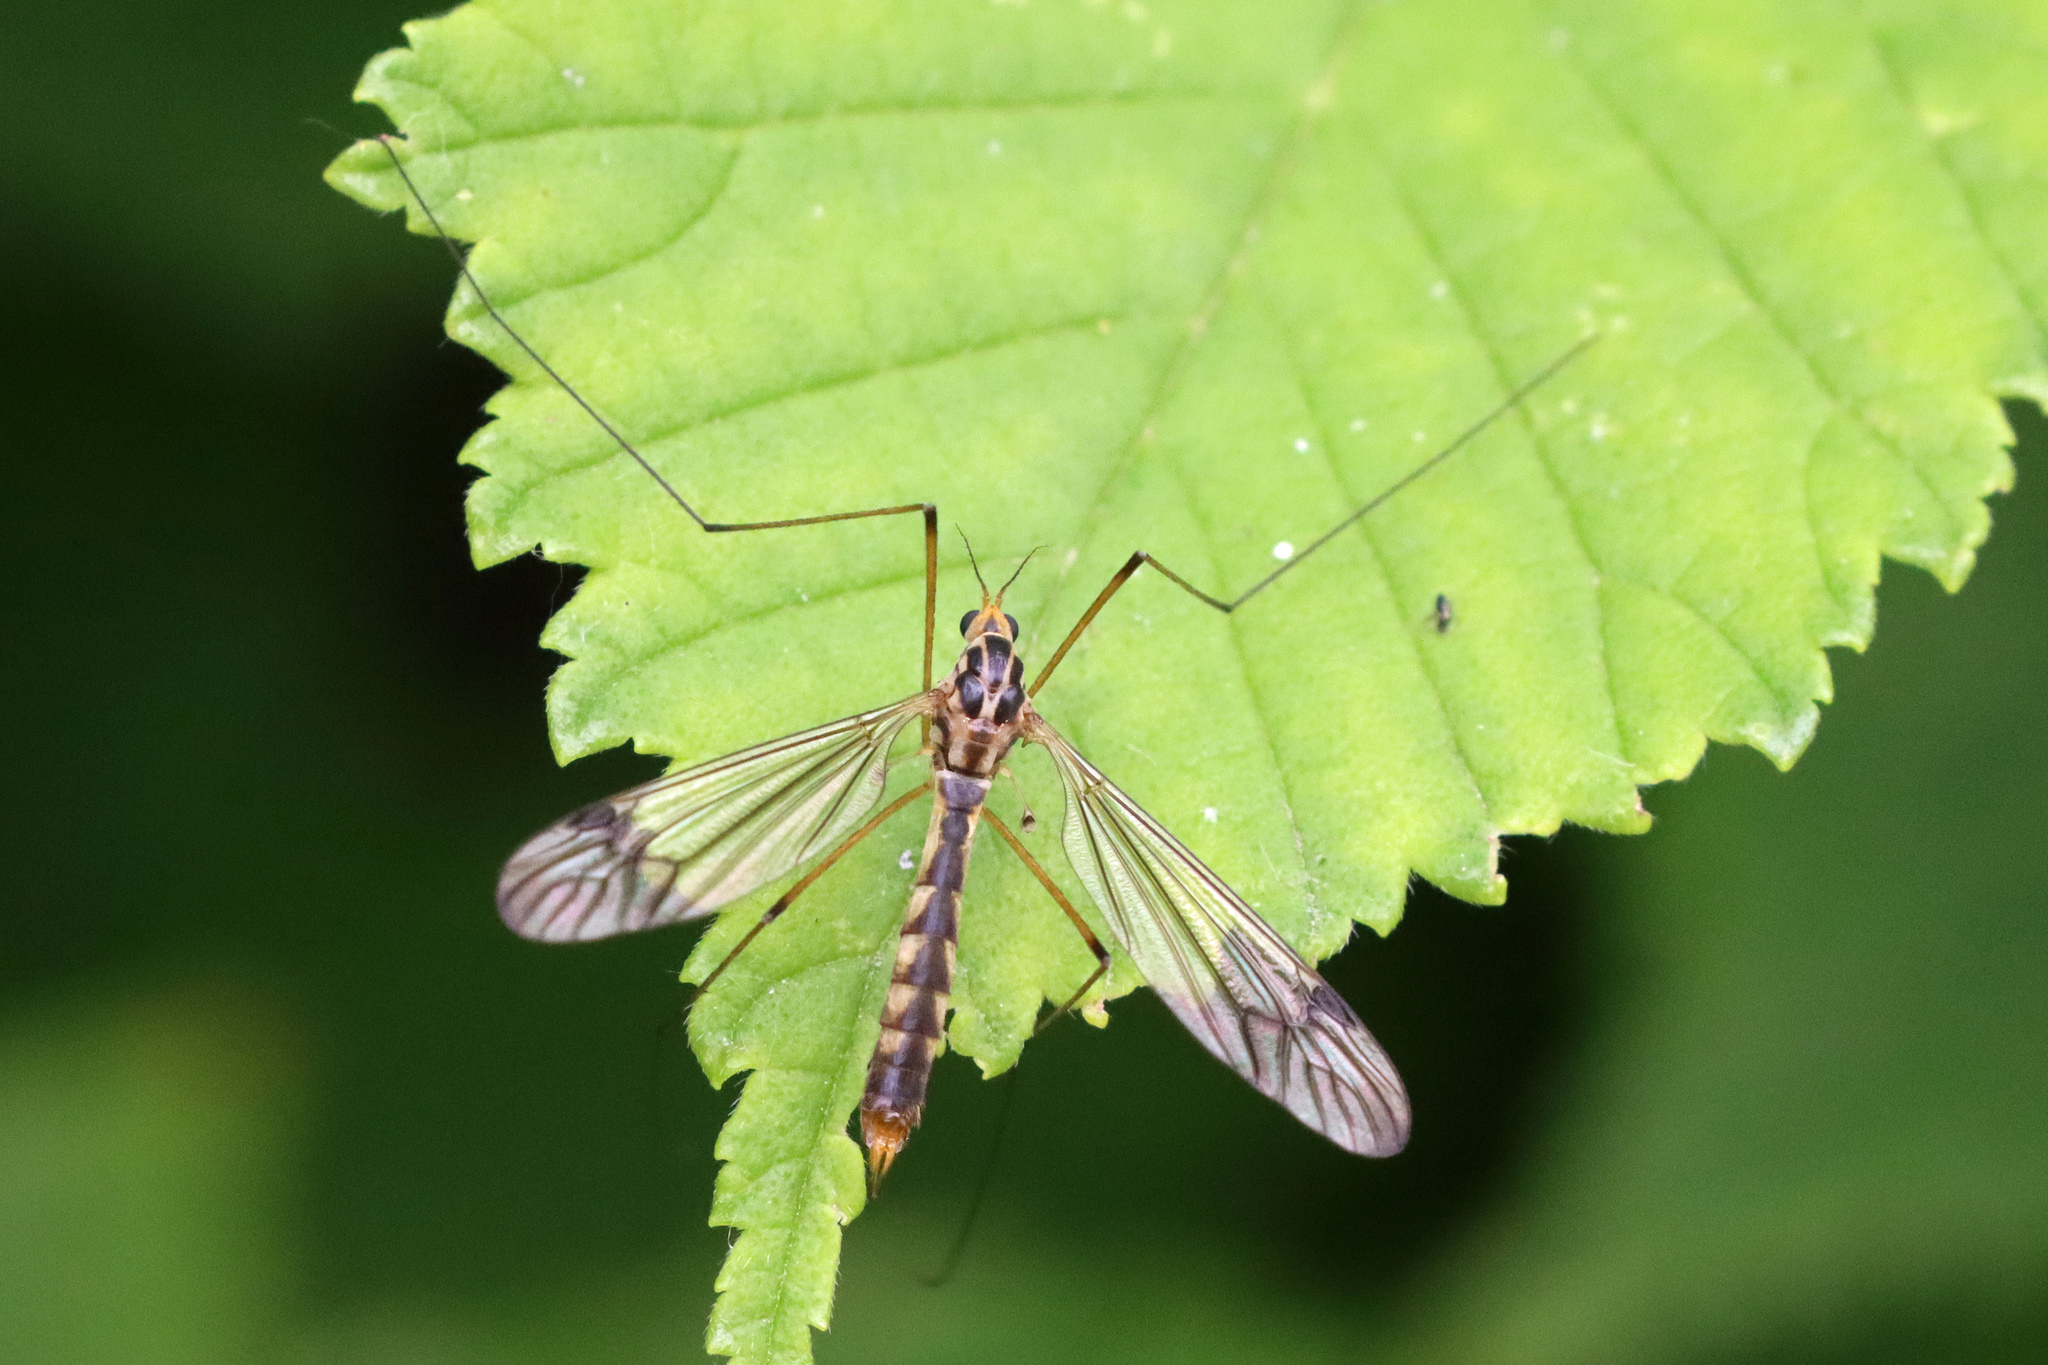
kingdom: Animalia
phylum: Arthropoda
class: Insecta
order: Diptera
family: Tipulidae
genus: Nephrotoma
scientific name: Nephrotoma quadrifaria
